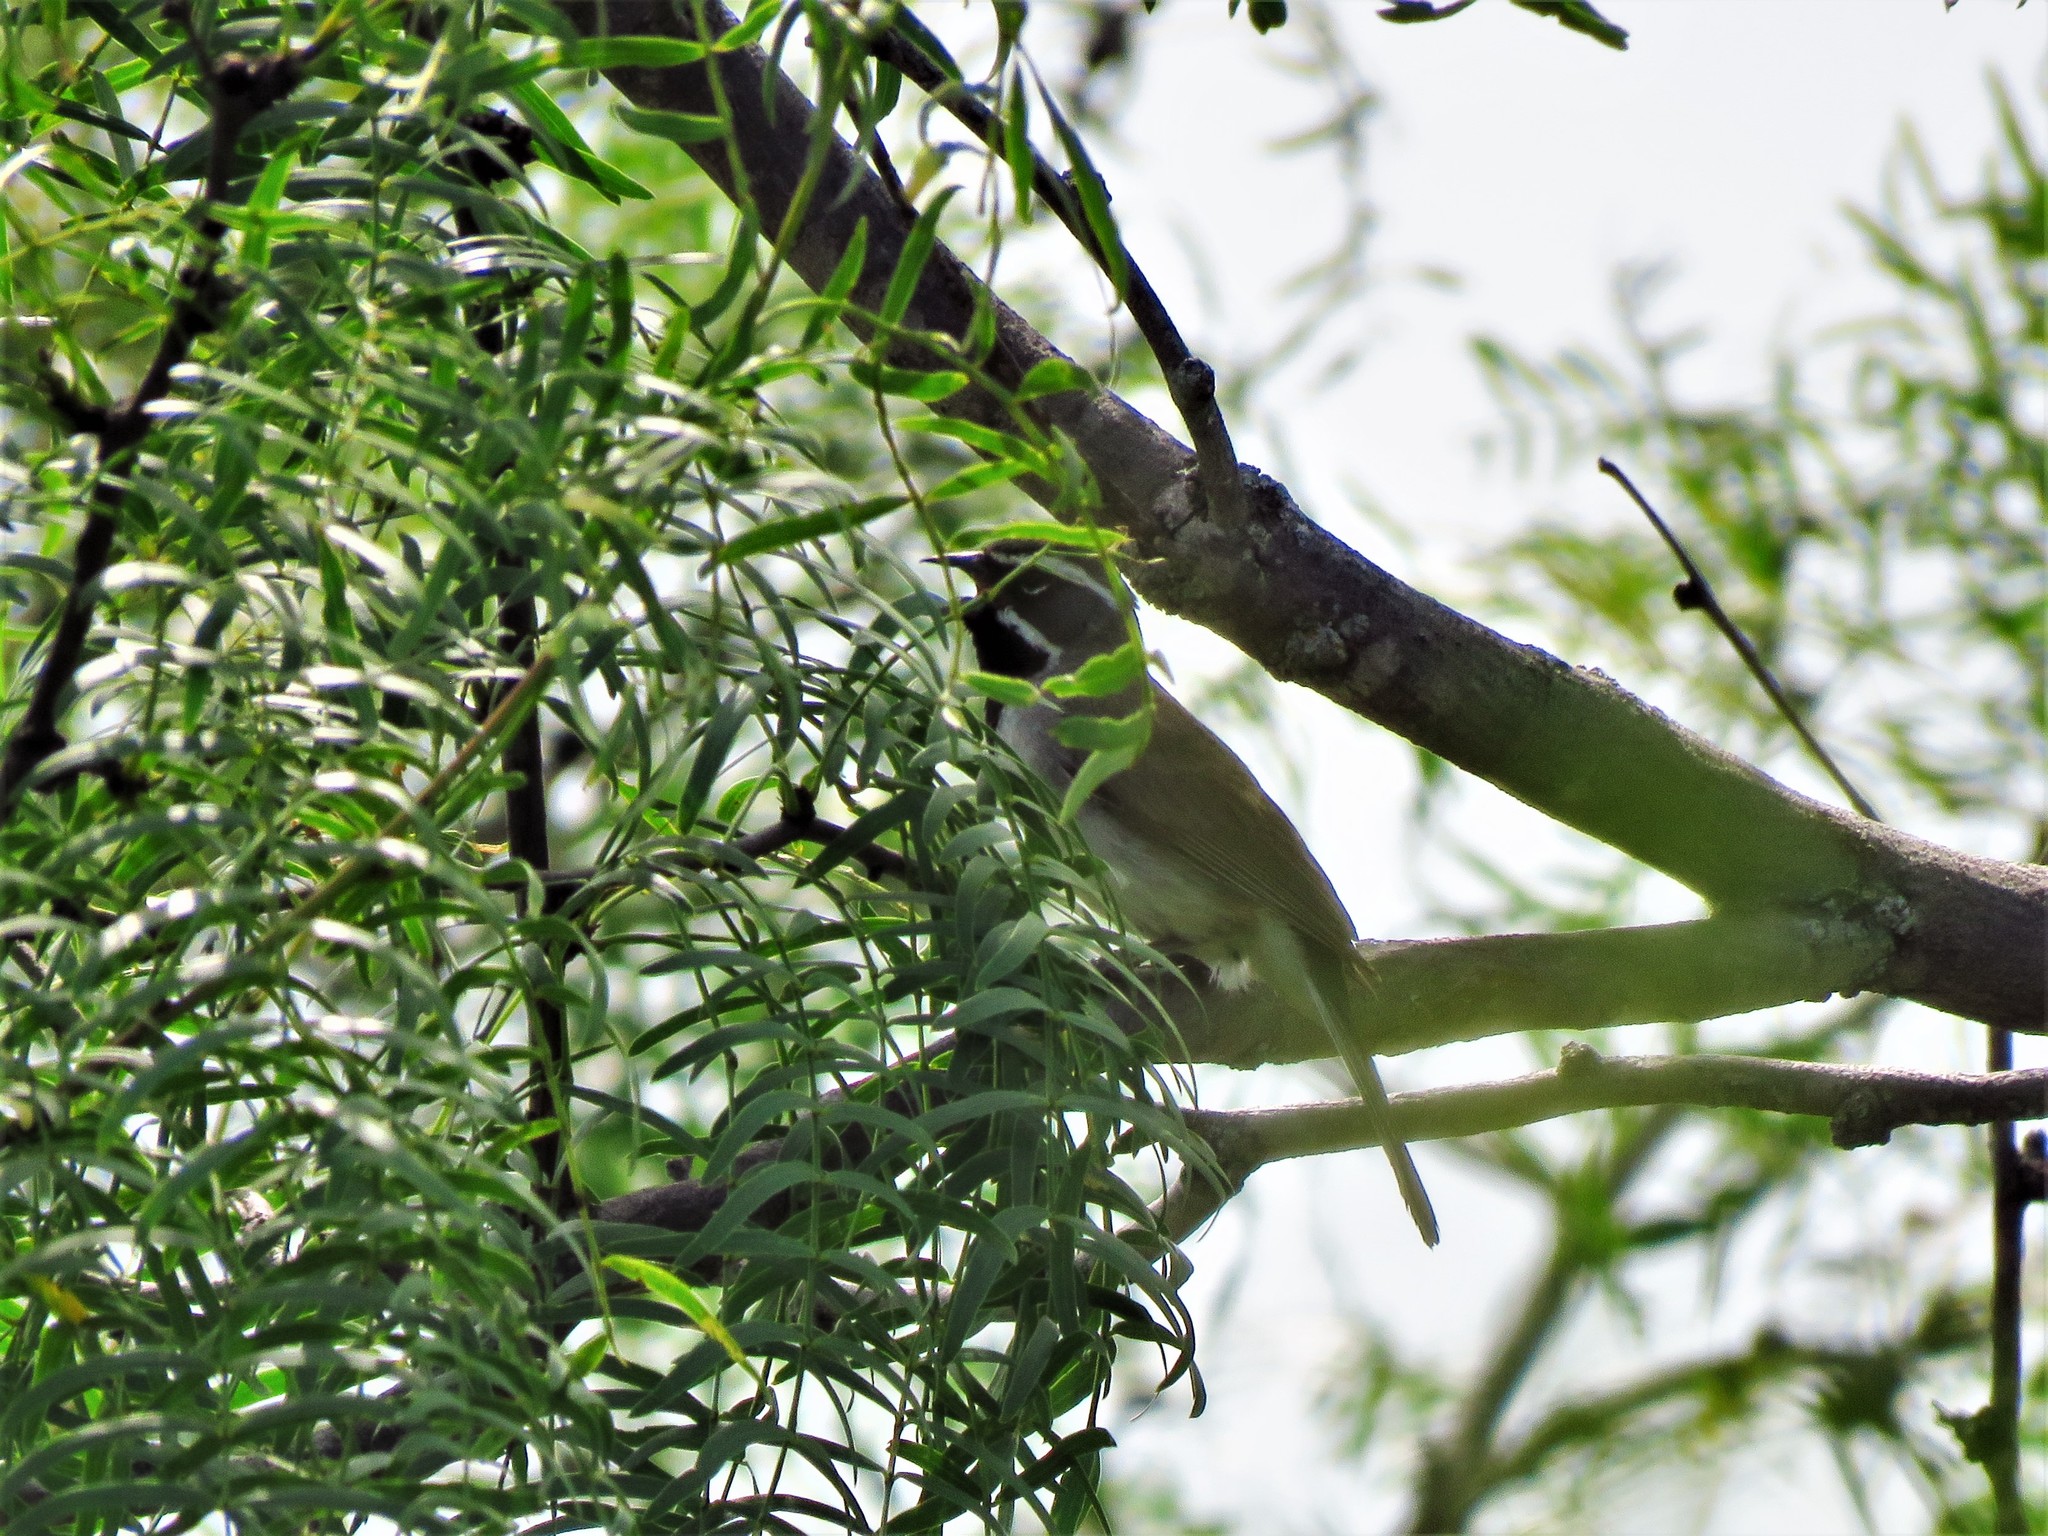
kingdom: Animalia
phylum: Chordata
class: Aves
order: Passeriformes
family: Passerellidae
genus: Amphispiza
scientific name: Amphispiza bilineata
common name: Black-throated sparrow
